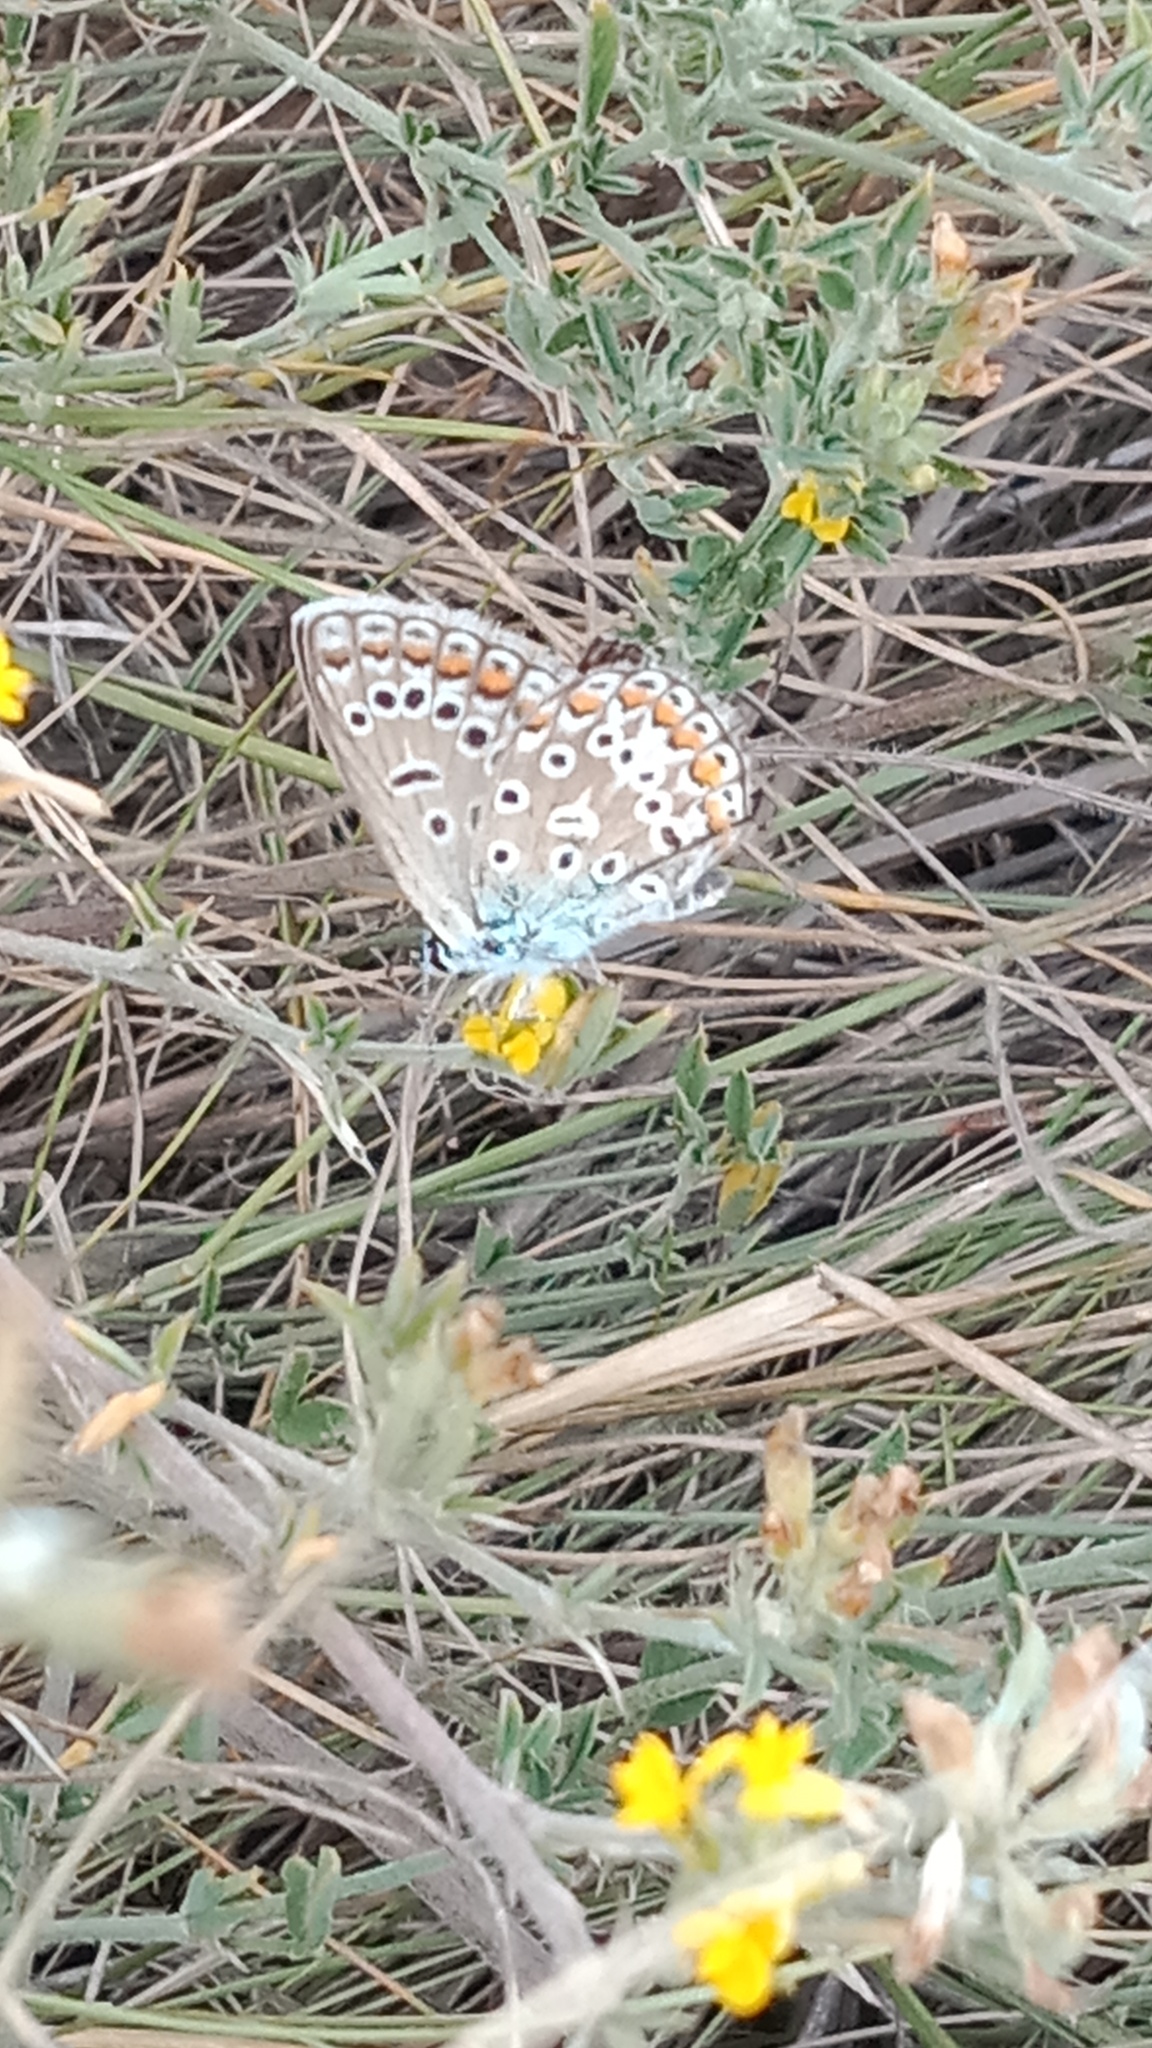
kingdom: Animalia
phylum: Arthropoda
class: Insecta
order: Lepidoptera
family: Lycaenidae
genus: Polyommatus
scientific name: Polyommatus icarus
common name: Common blue
